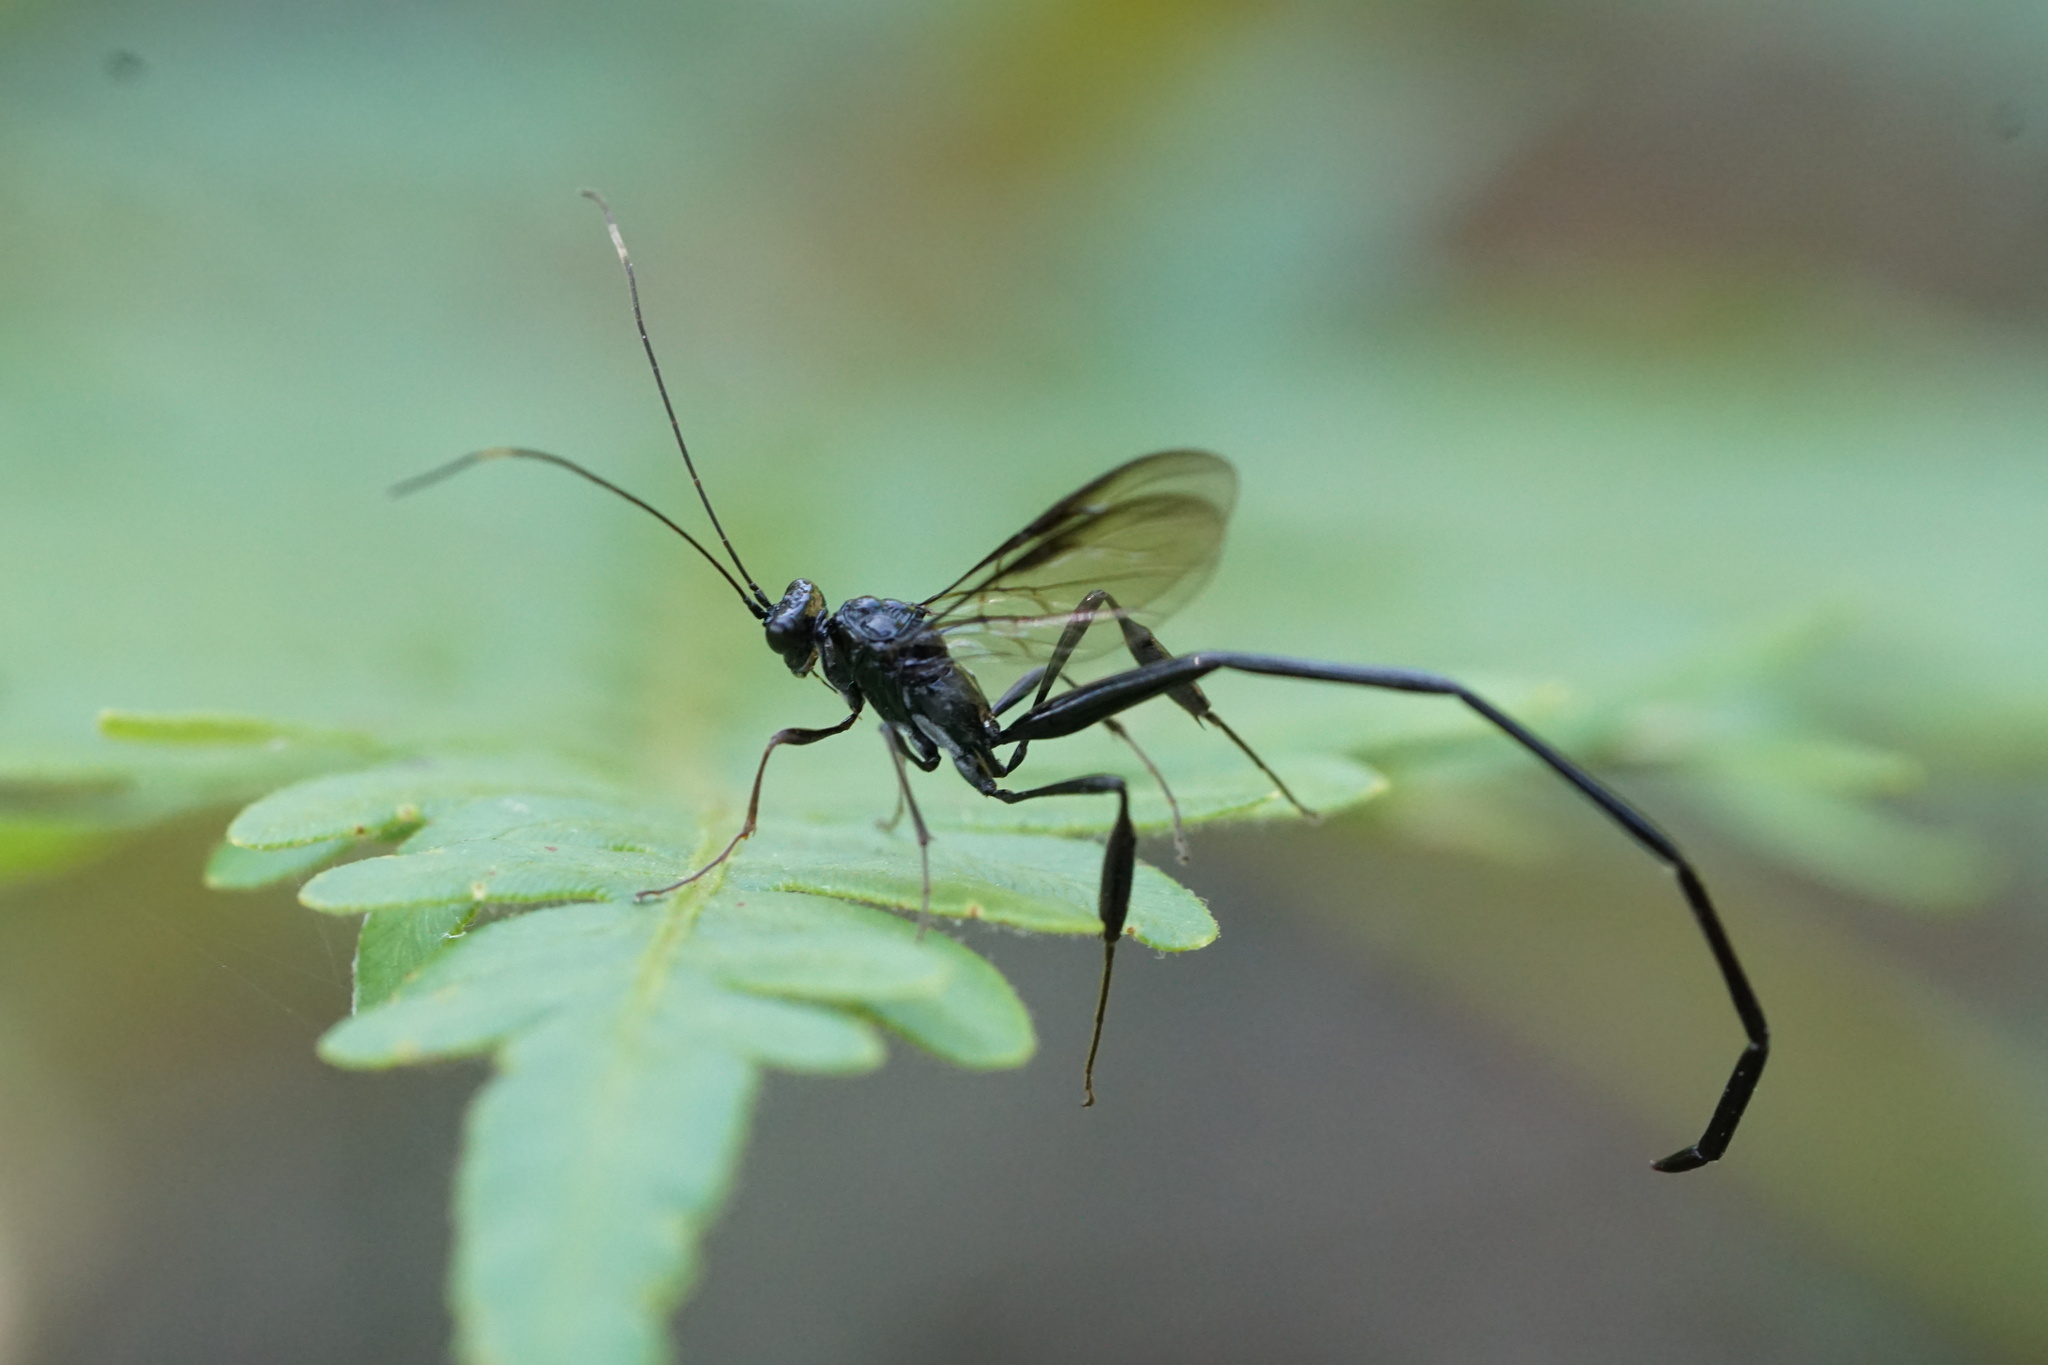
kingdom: Animalia
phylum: Arthropoda
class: Insecta
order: Hymenoptera
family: Pelecinidae
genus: Pelecinus
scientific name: Pelecinus polyturator
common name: American pelecinid wasp
